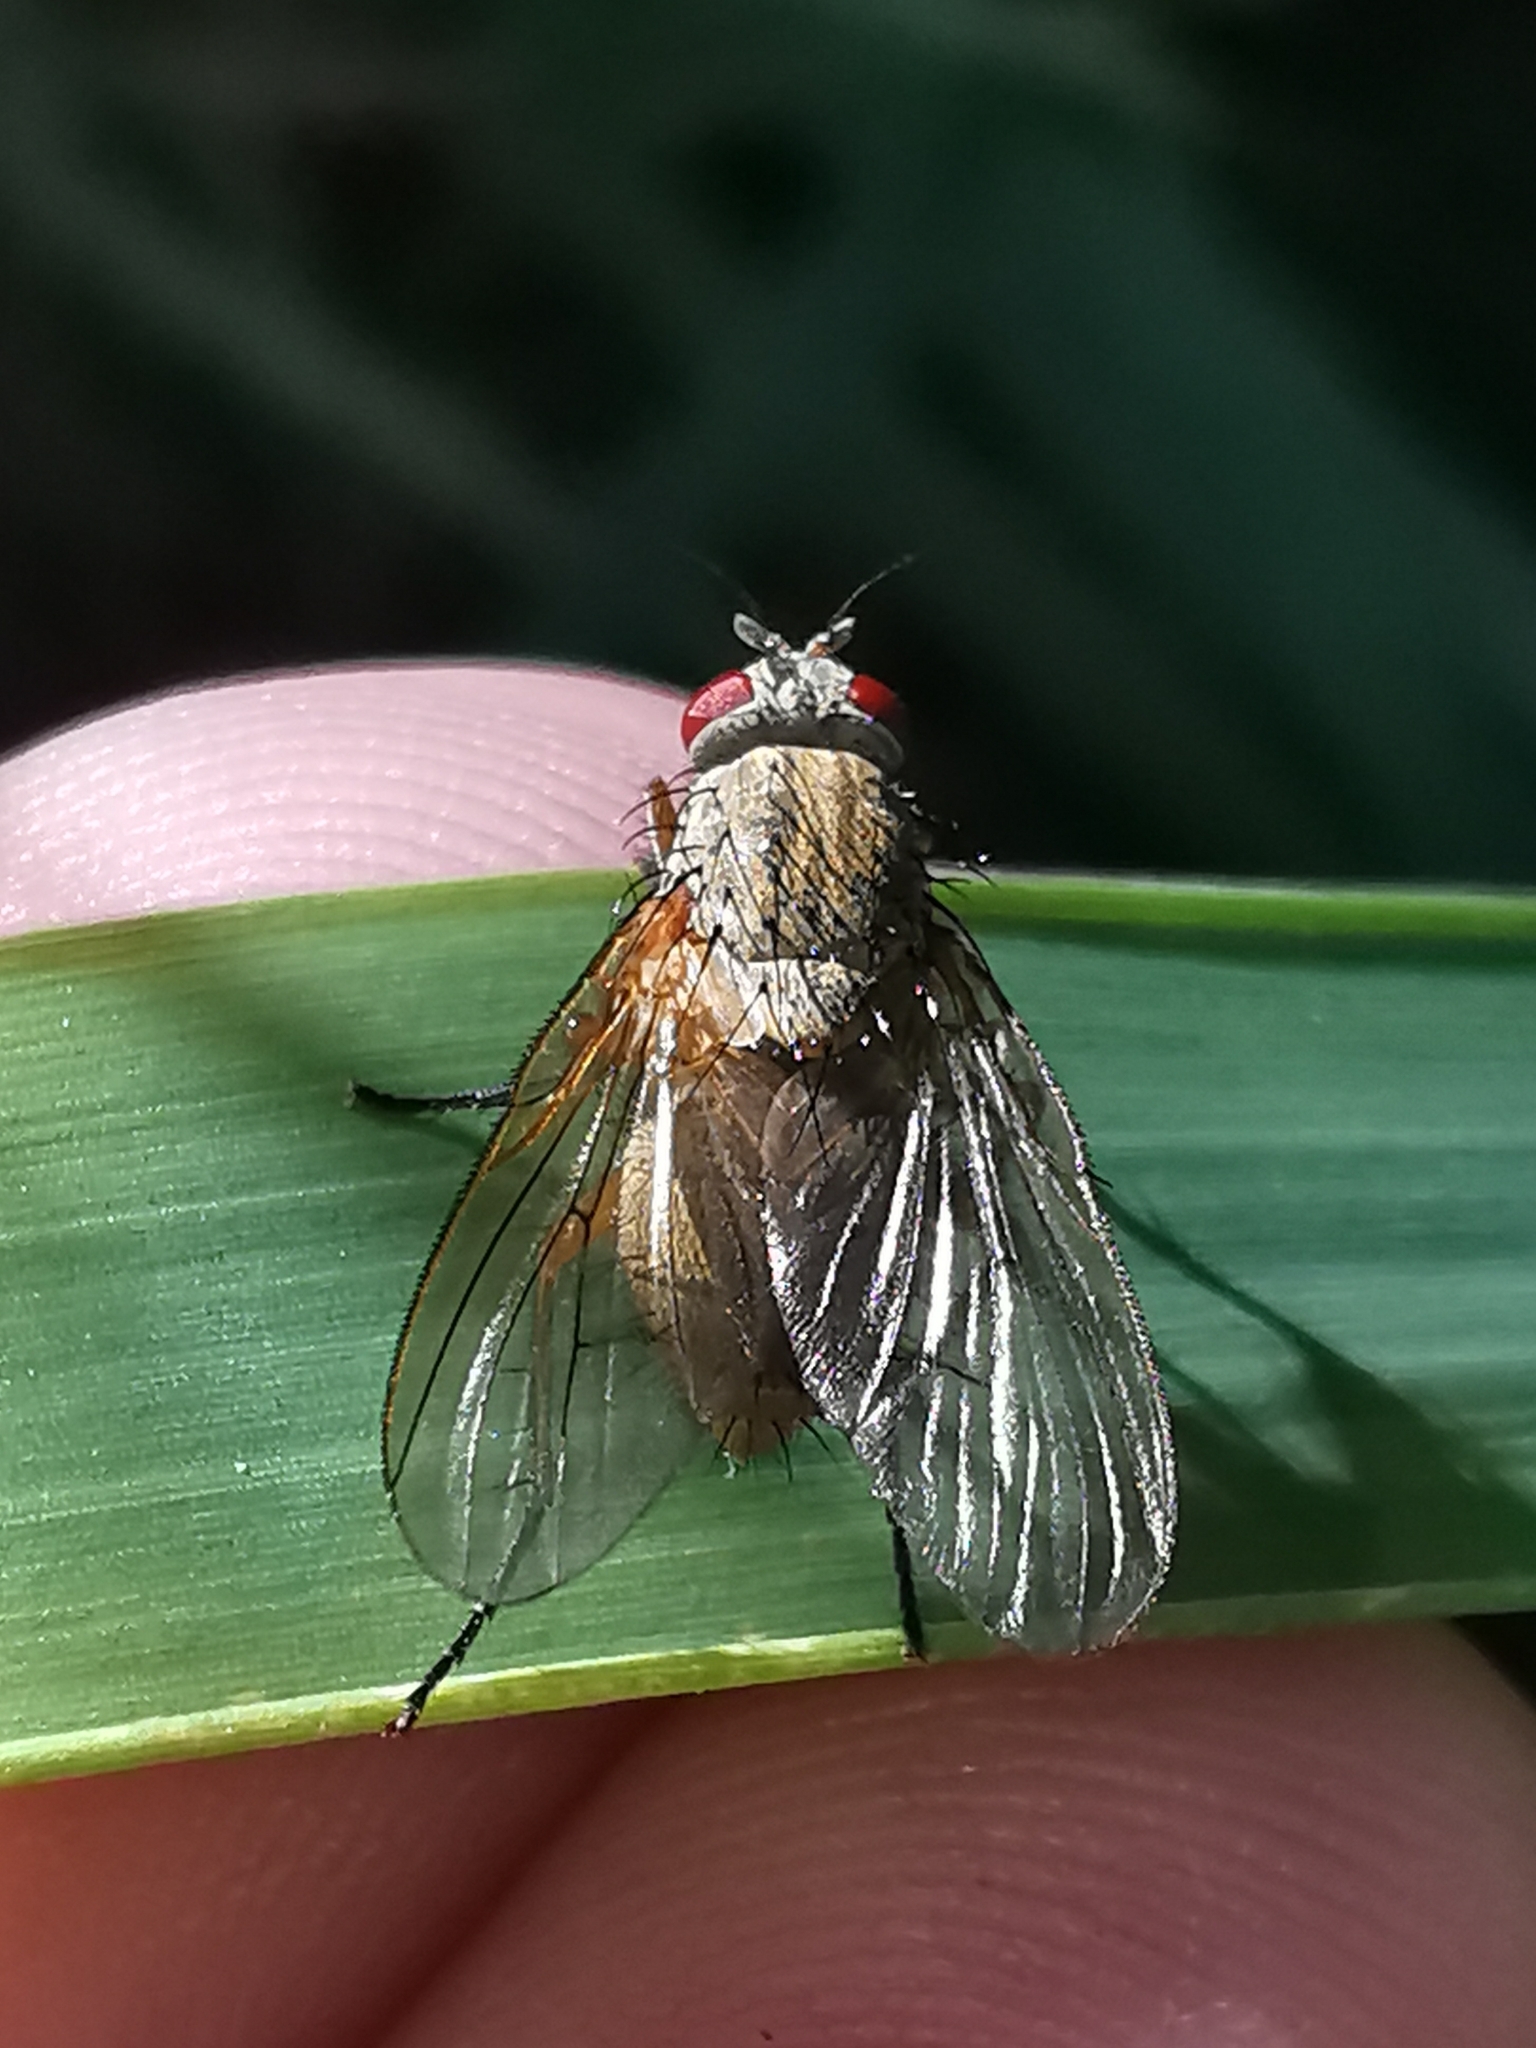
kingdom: Animalia
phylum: Arthropoda
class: Insecta
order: Diptera
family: Muscidae
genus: Thricops
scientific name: Thricops simplex
